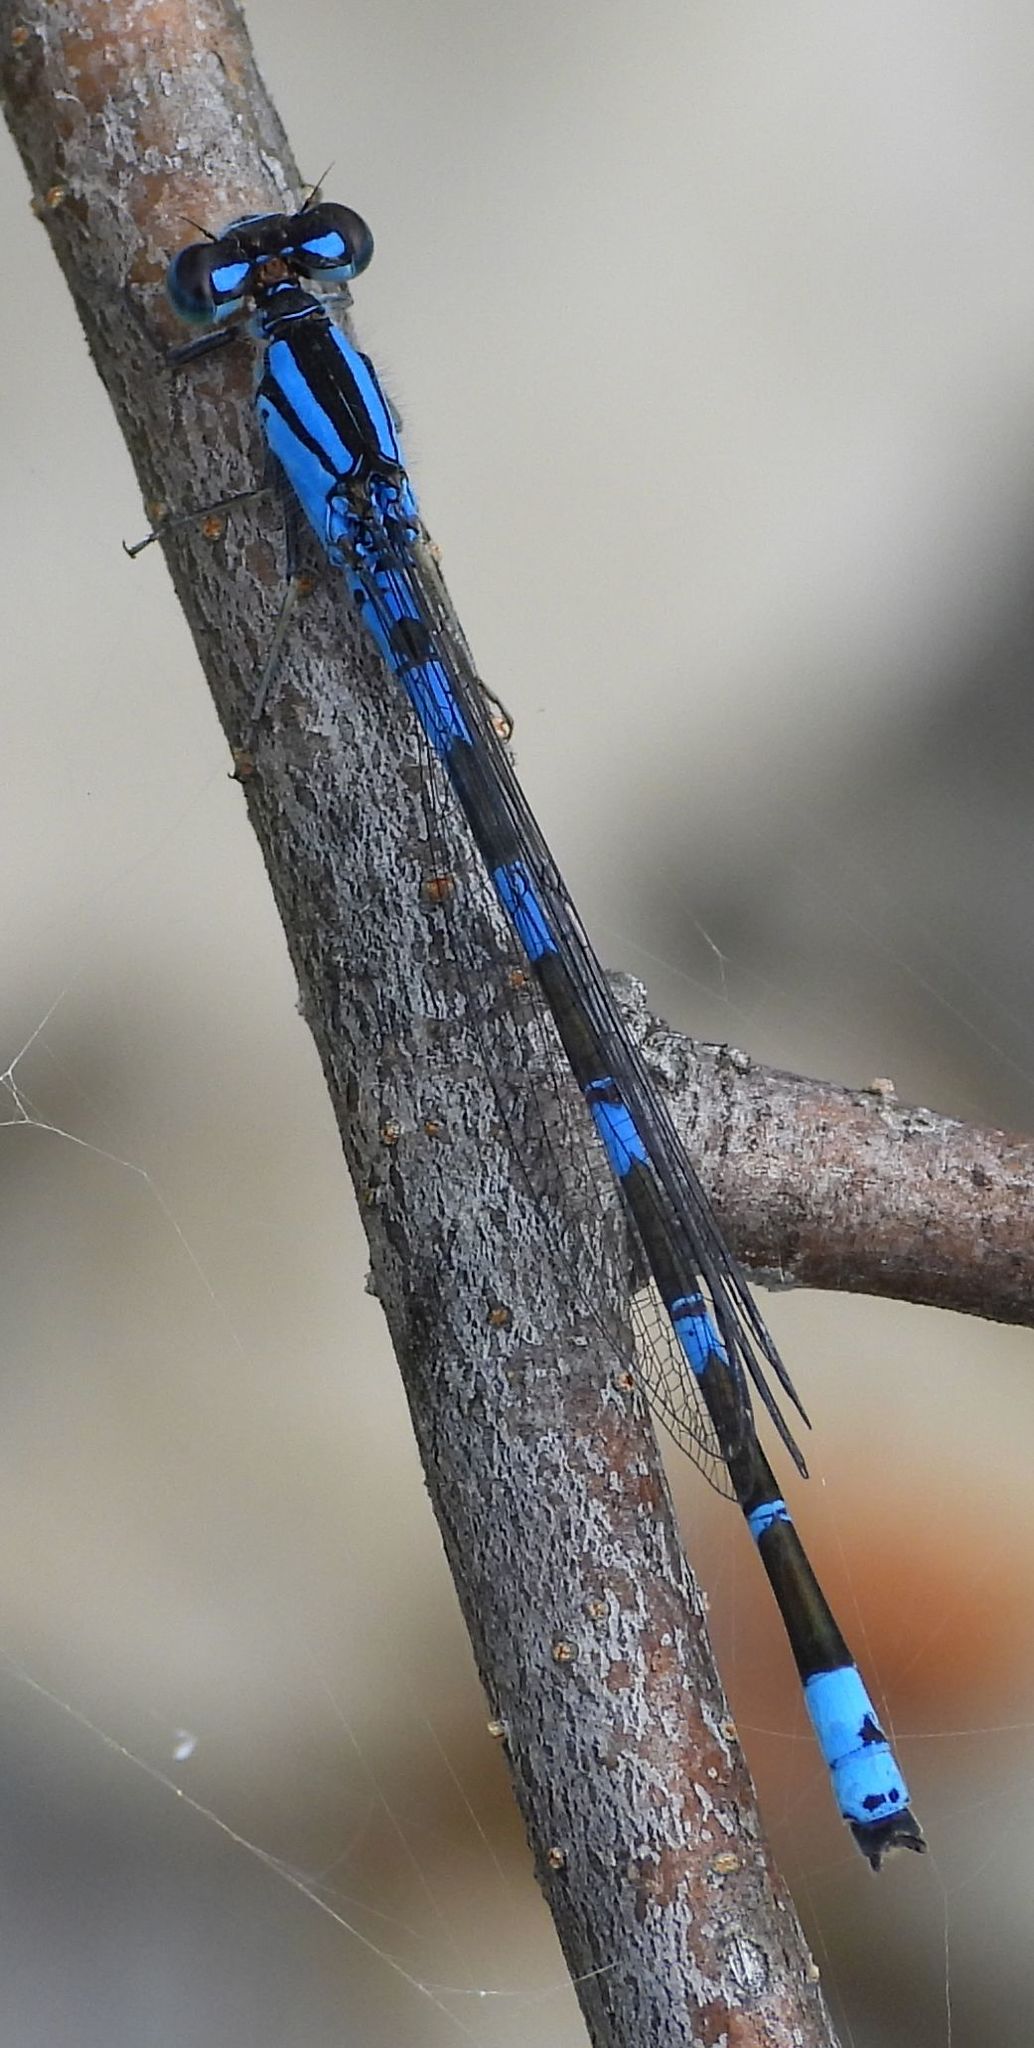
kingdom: Animalia
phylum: Arthropoda
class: Insecta
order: Odonata
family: Coenagrionidae
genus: Enallagma
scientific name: Enallagma carunculatum
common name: Tule bluet
